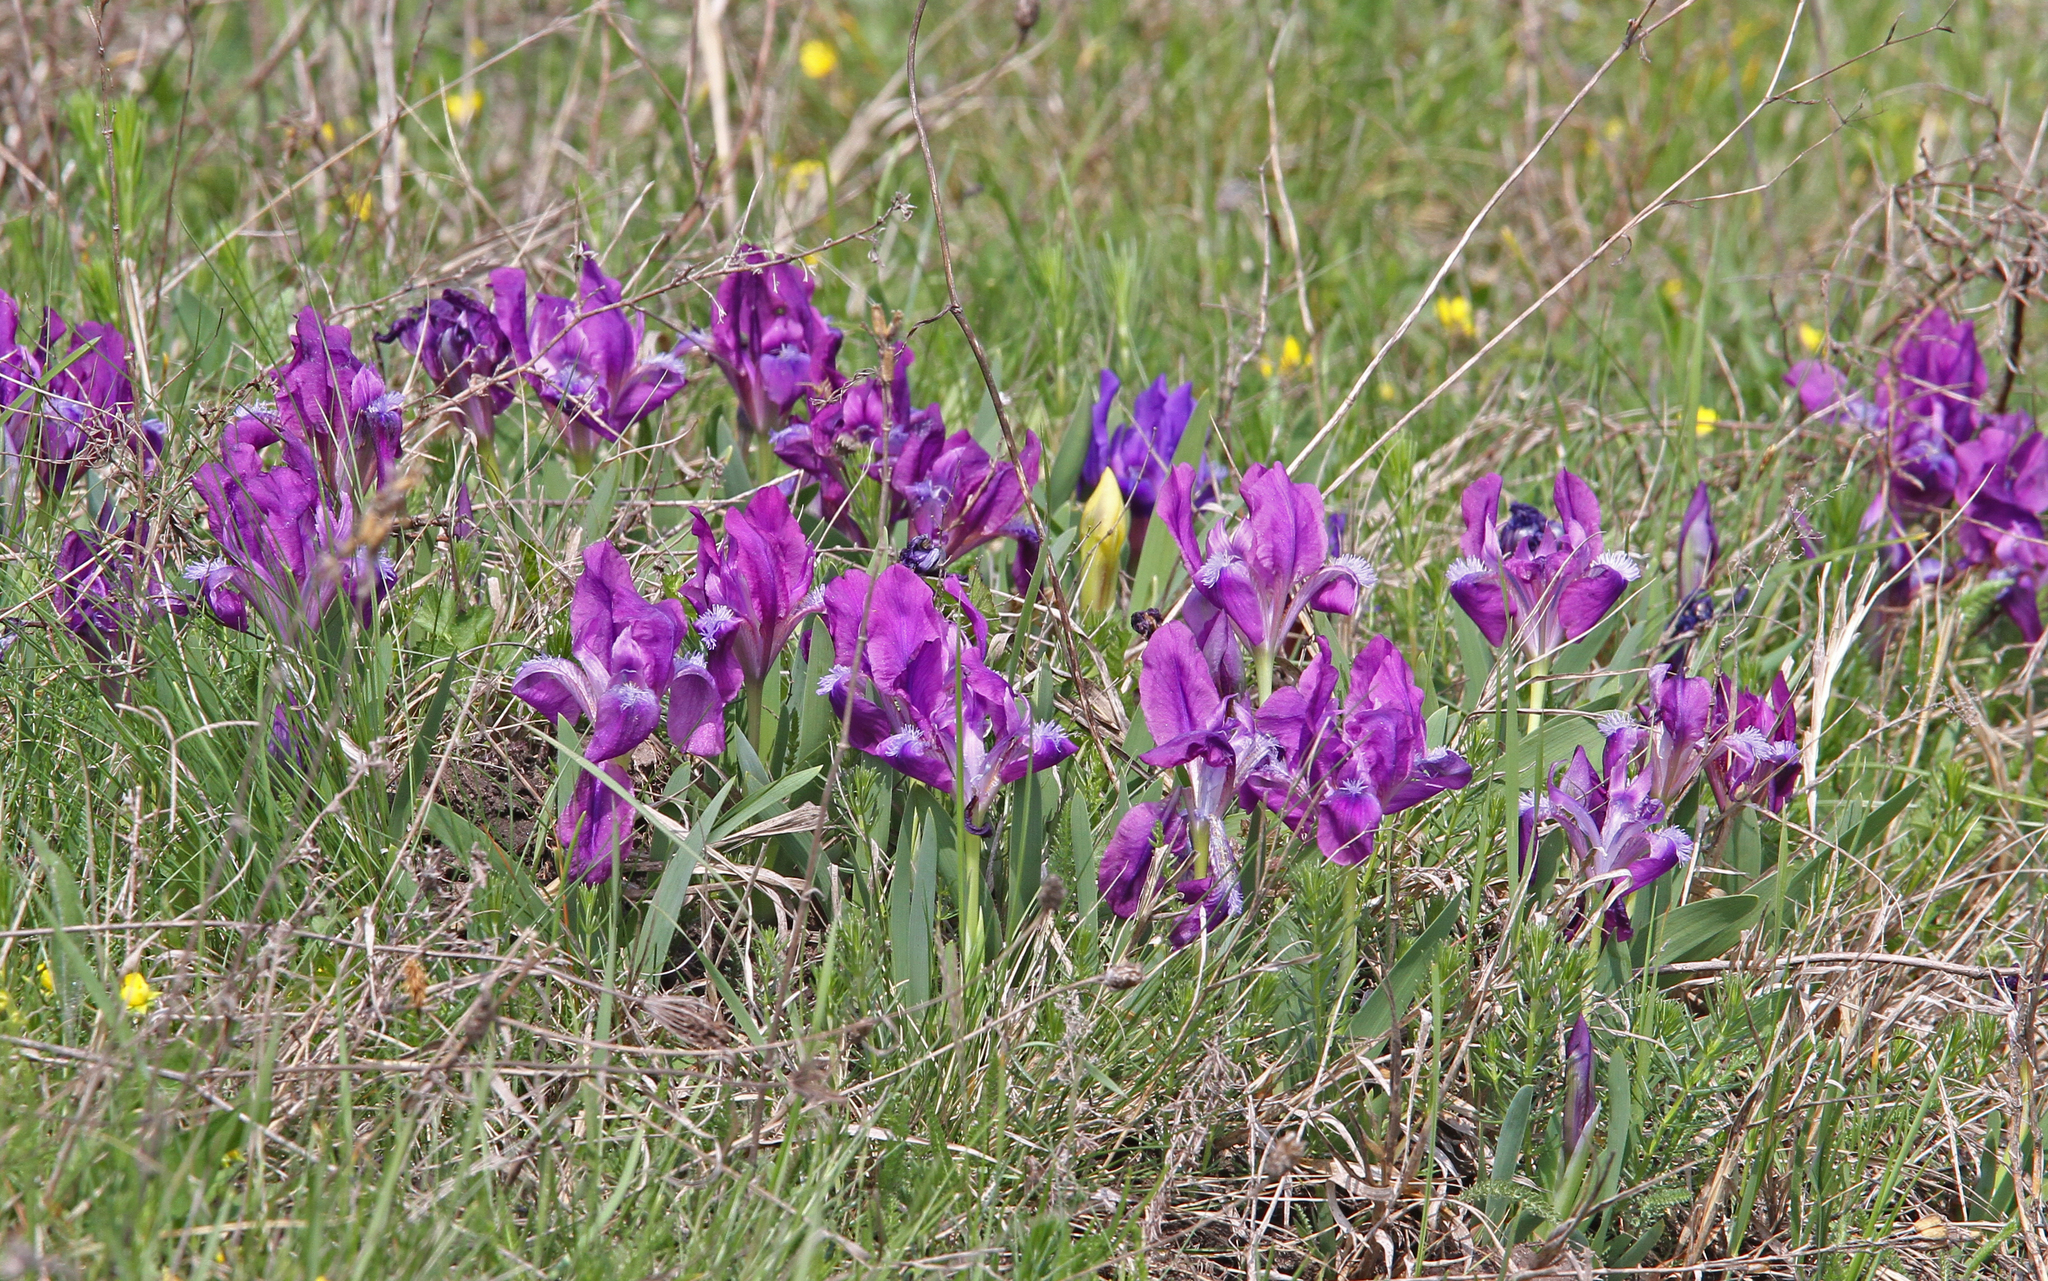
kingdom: Plantae
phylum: Tracheophyta
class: Liliopsida
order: Asparagales
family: Iridaceae
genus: Iris
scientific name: Iris pumila
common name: Dwarf iris
